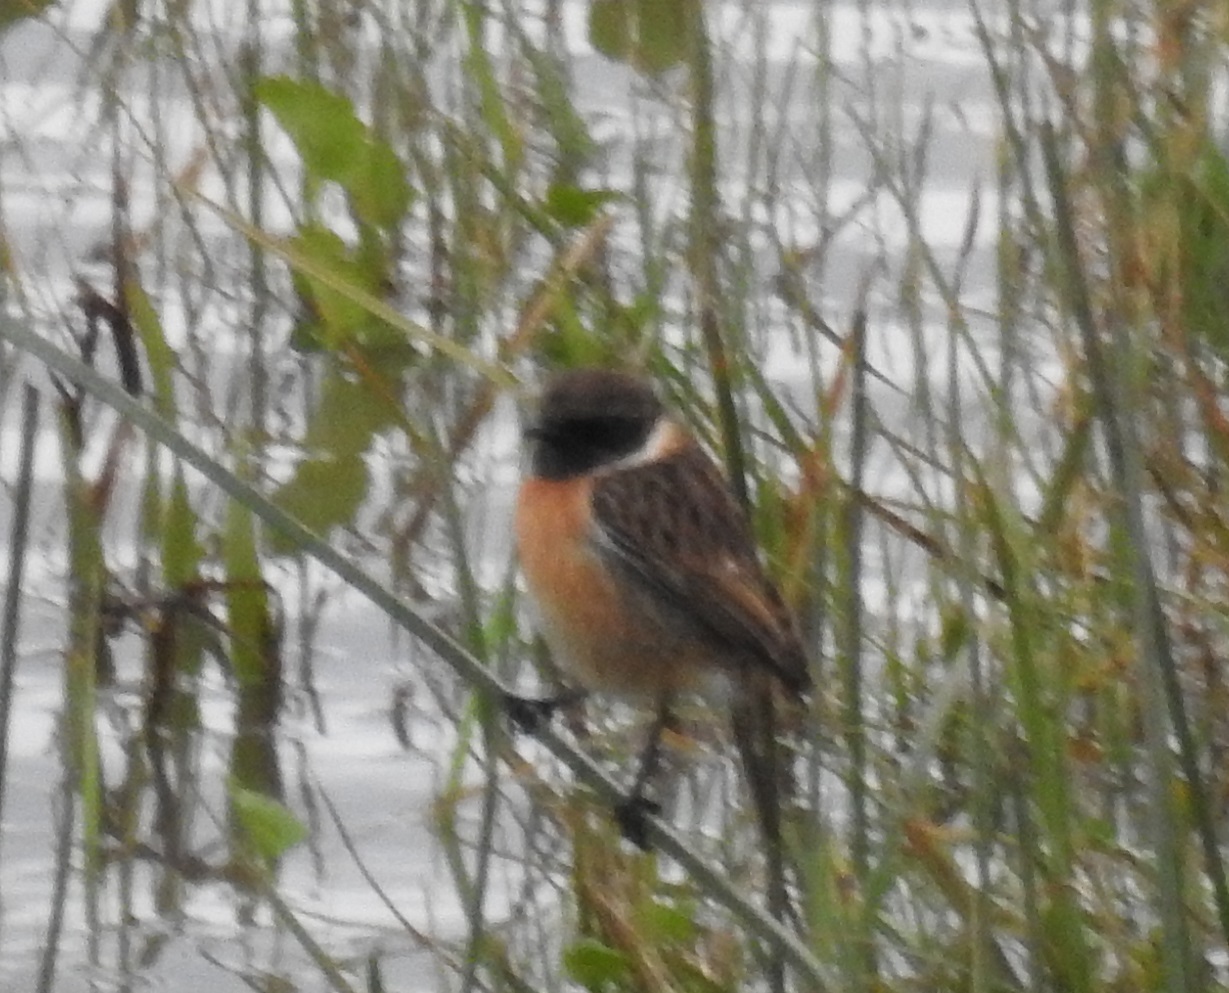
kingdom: Animalia
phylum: Chordata
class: Aves
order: Passeriformes
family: Muscicapidae
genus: Saxicola
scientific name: Saxicola rubicola
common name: European stonechat
